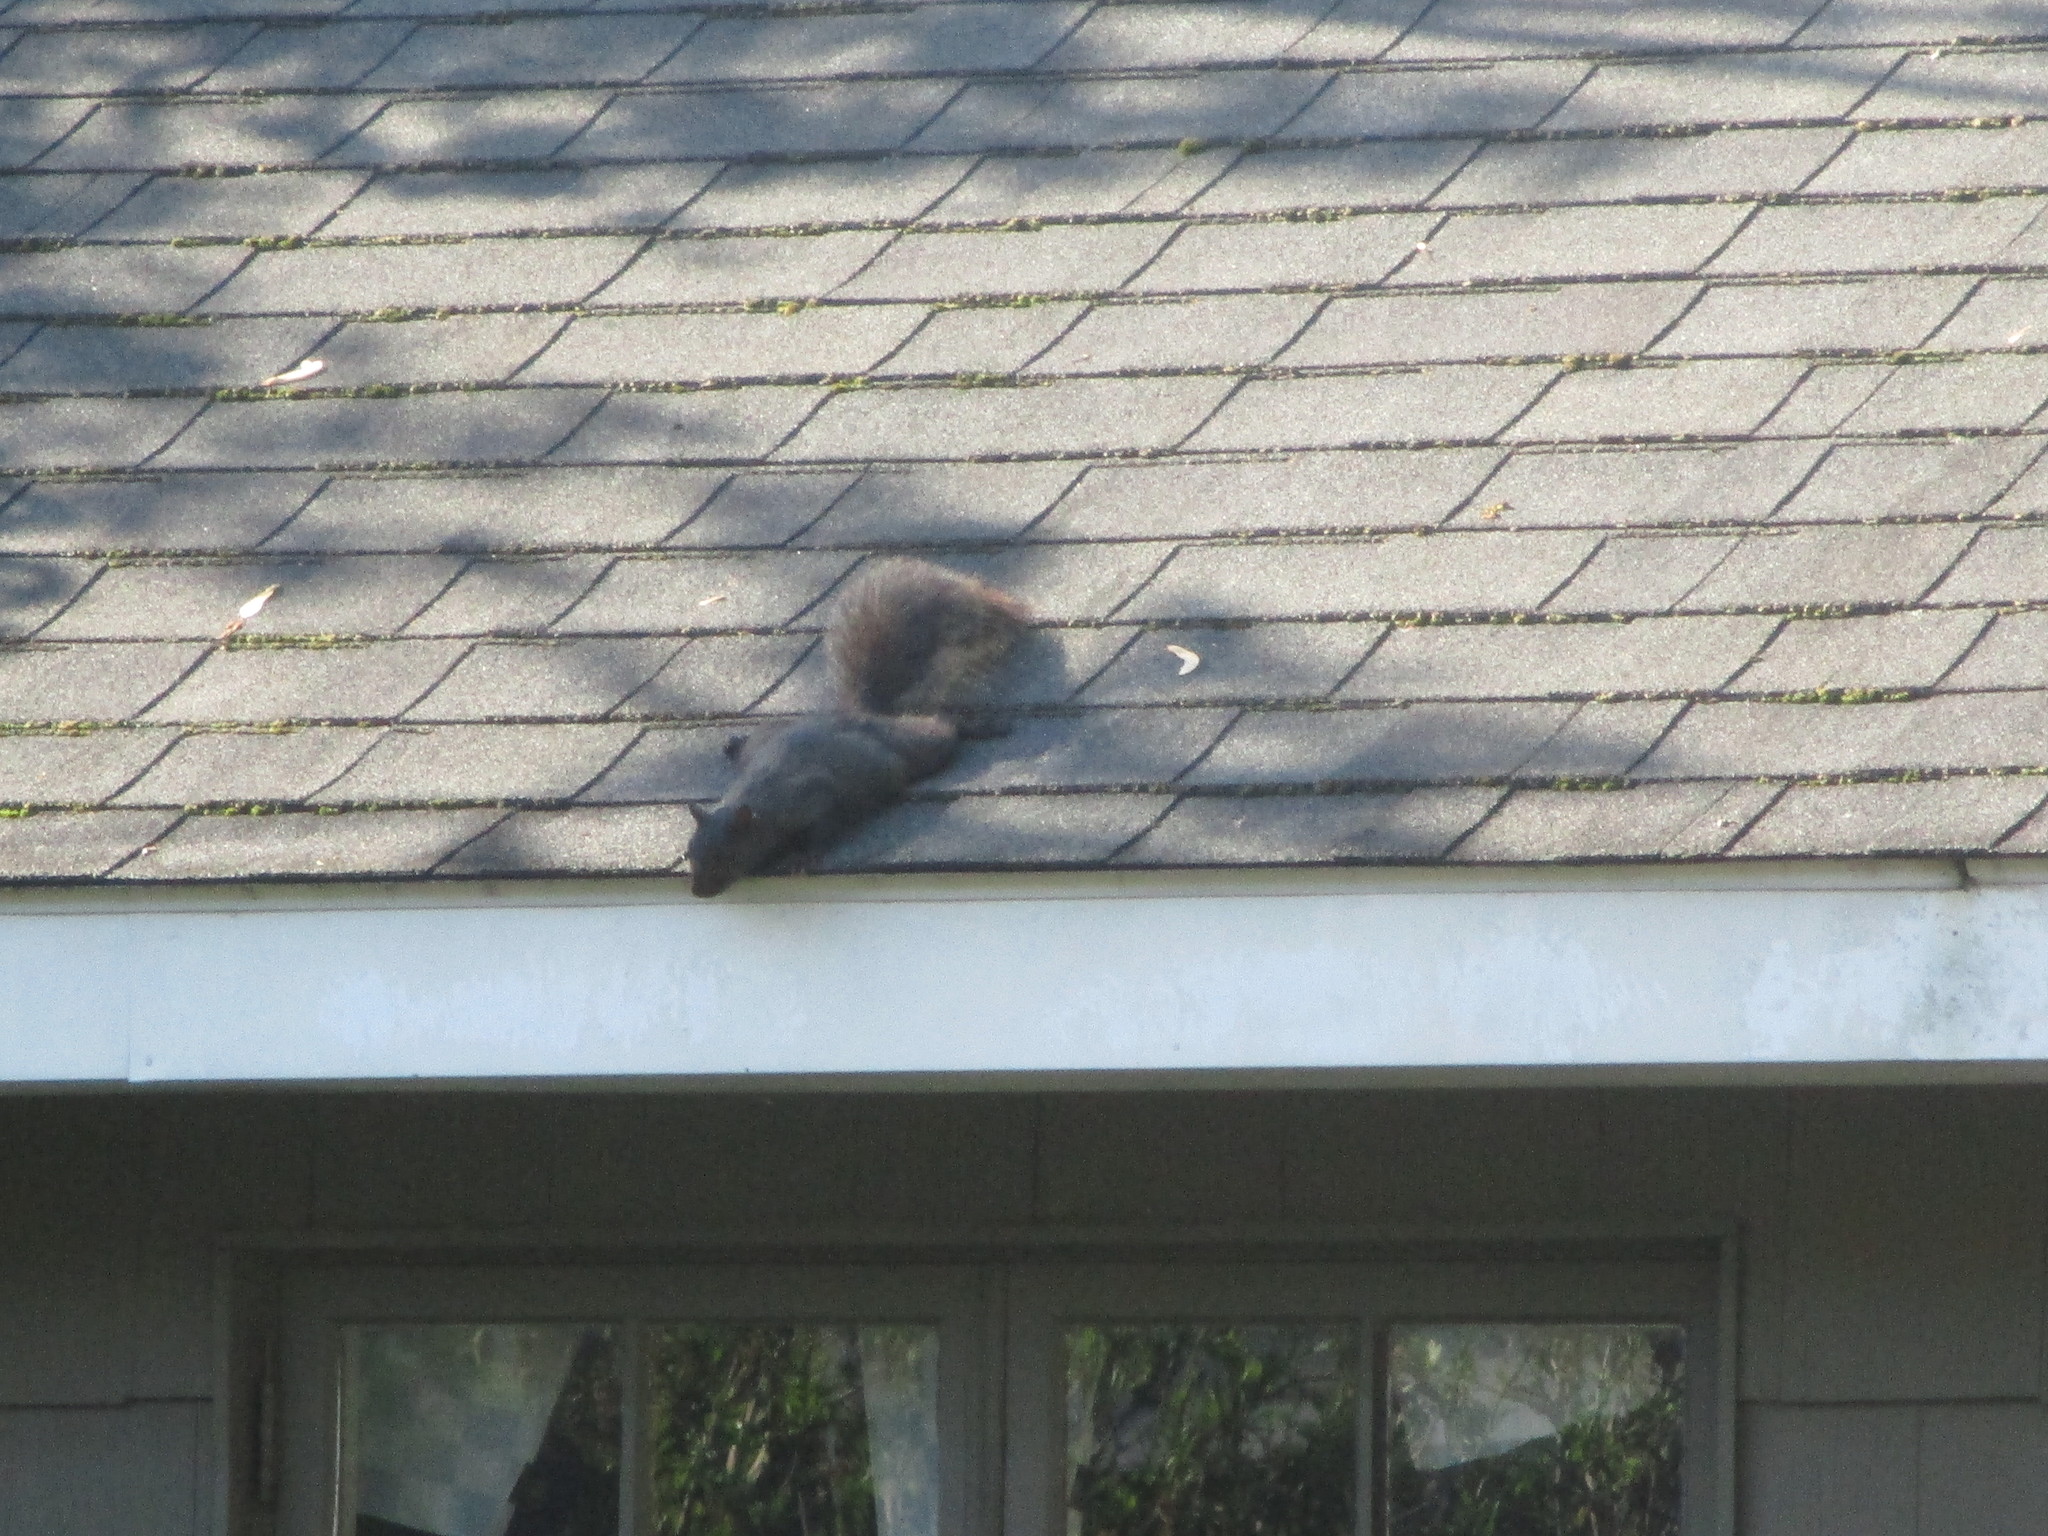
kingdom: Animalia
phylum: Chordata
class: Mammalia
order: Rodentia
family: Sciuridae
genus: Sciurus
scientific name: Sciurus carolinensis
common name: Eastern gray squirrel
